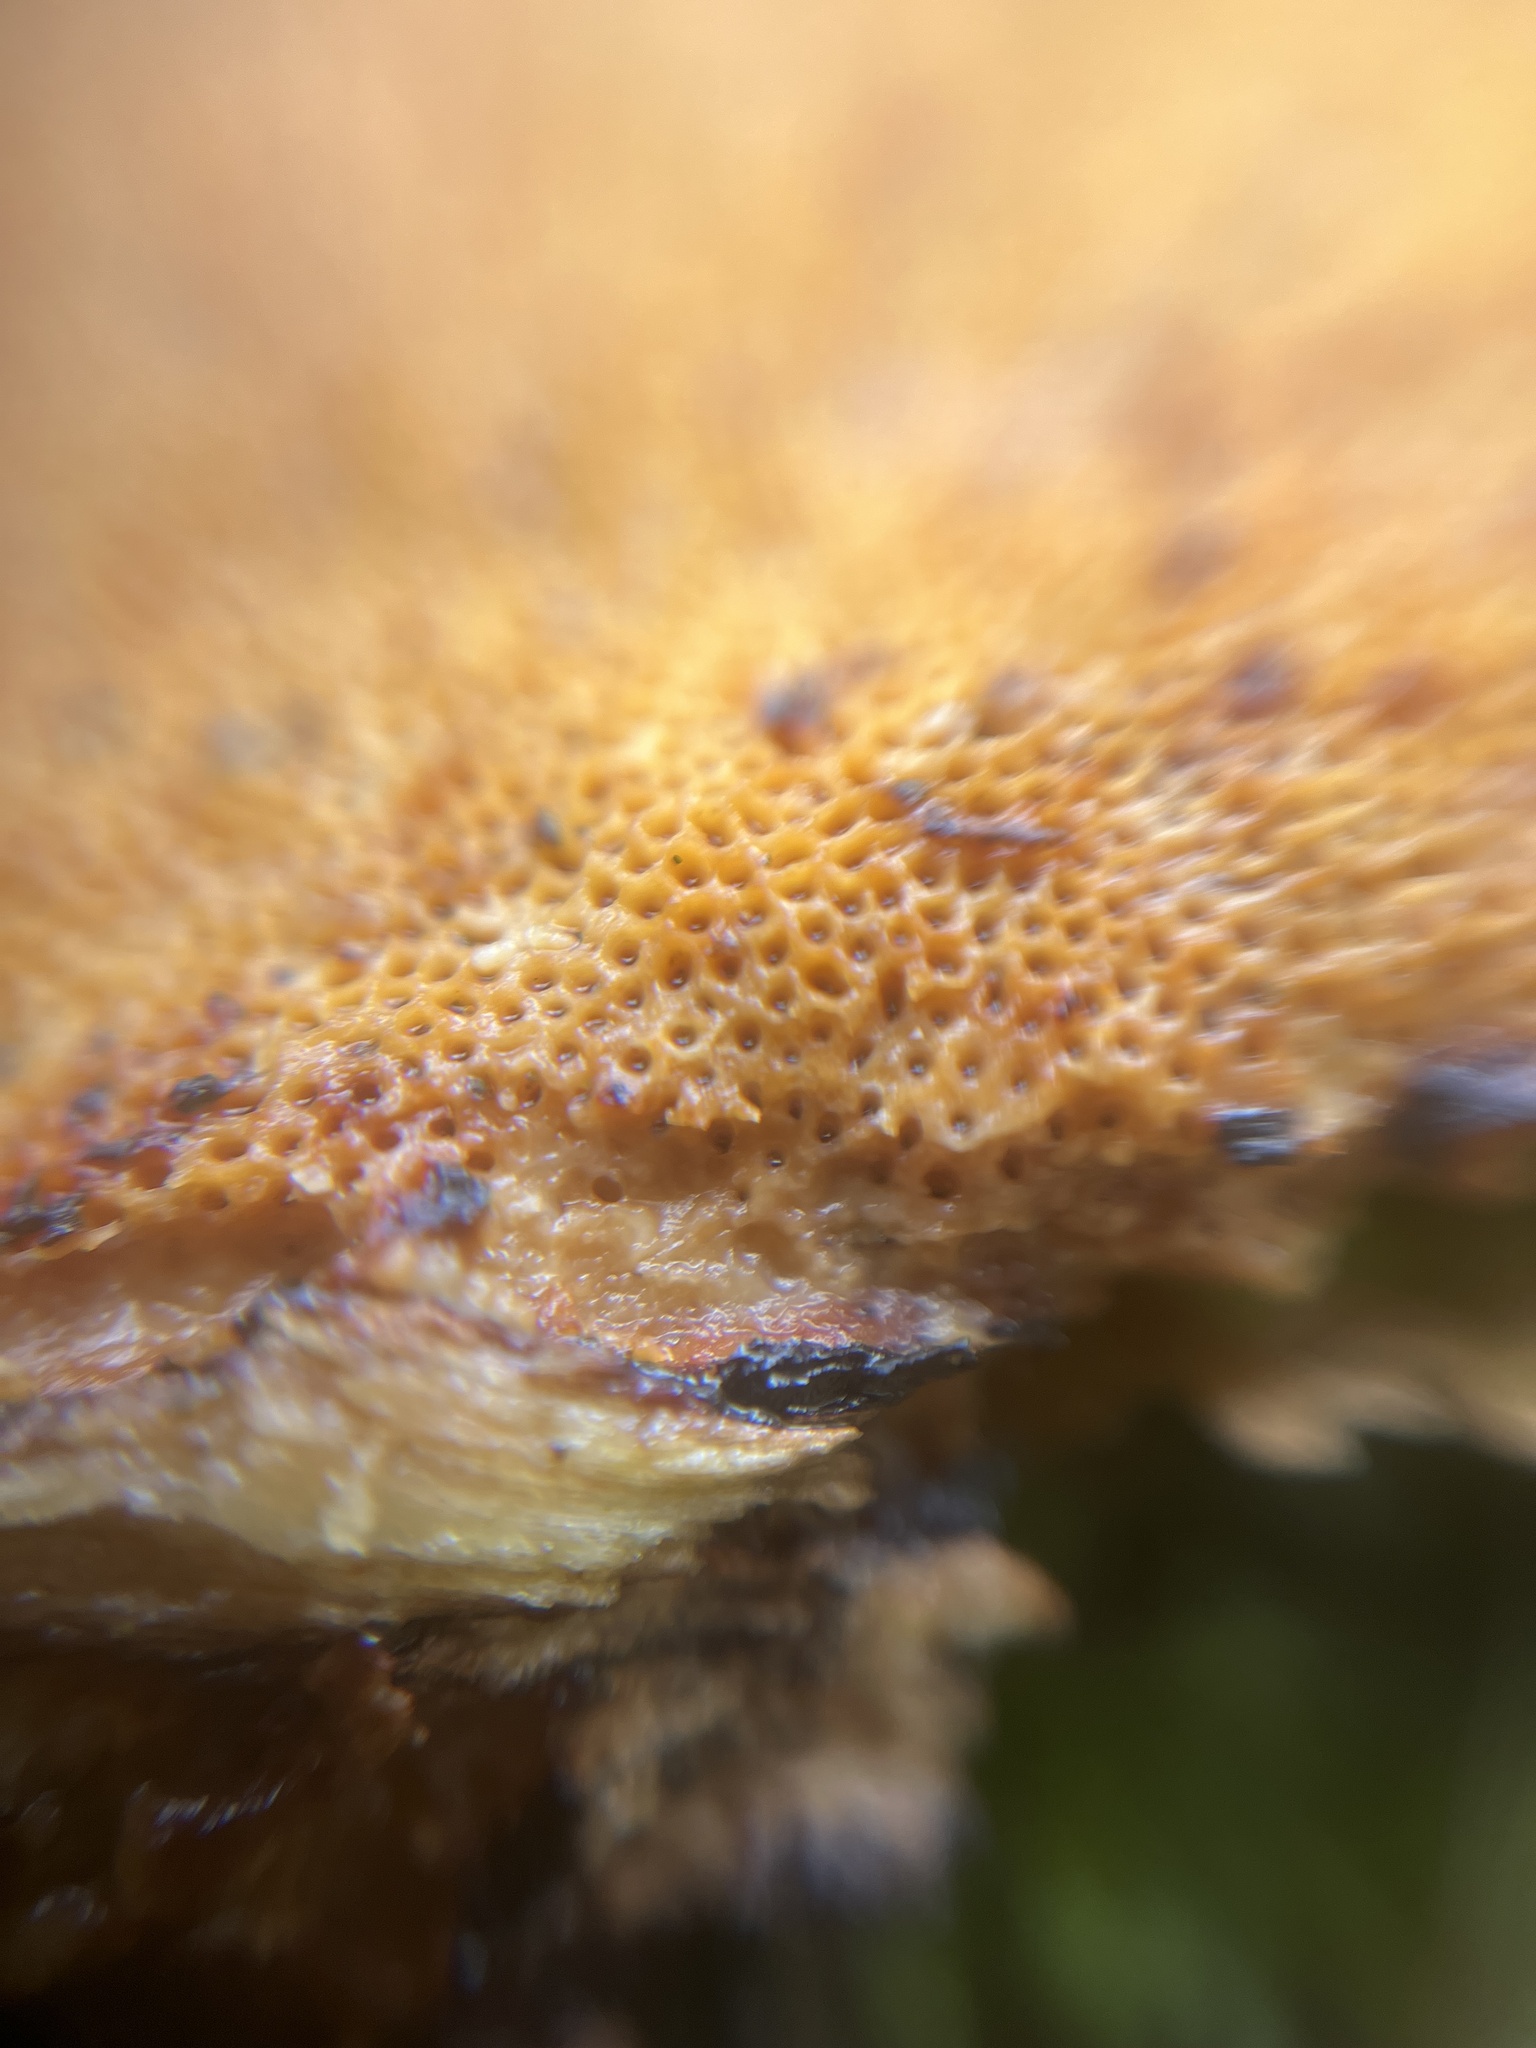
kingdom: Fungi
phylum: Basidiomycota
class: Agaricomycetes
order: Polyporales
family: Polyporaceae
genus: Daedaleopsis
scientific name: Daedaleopsis confragosa
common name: Blushing bracket
